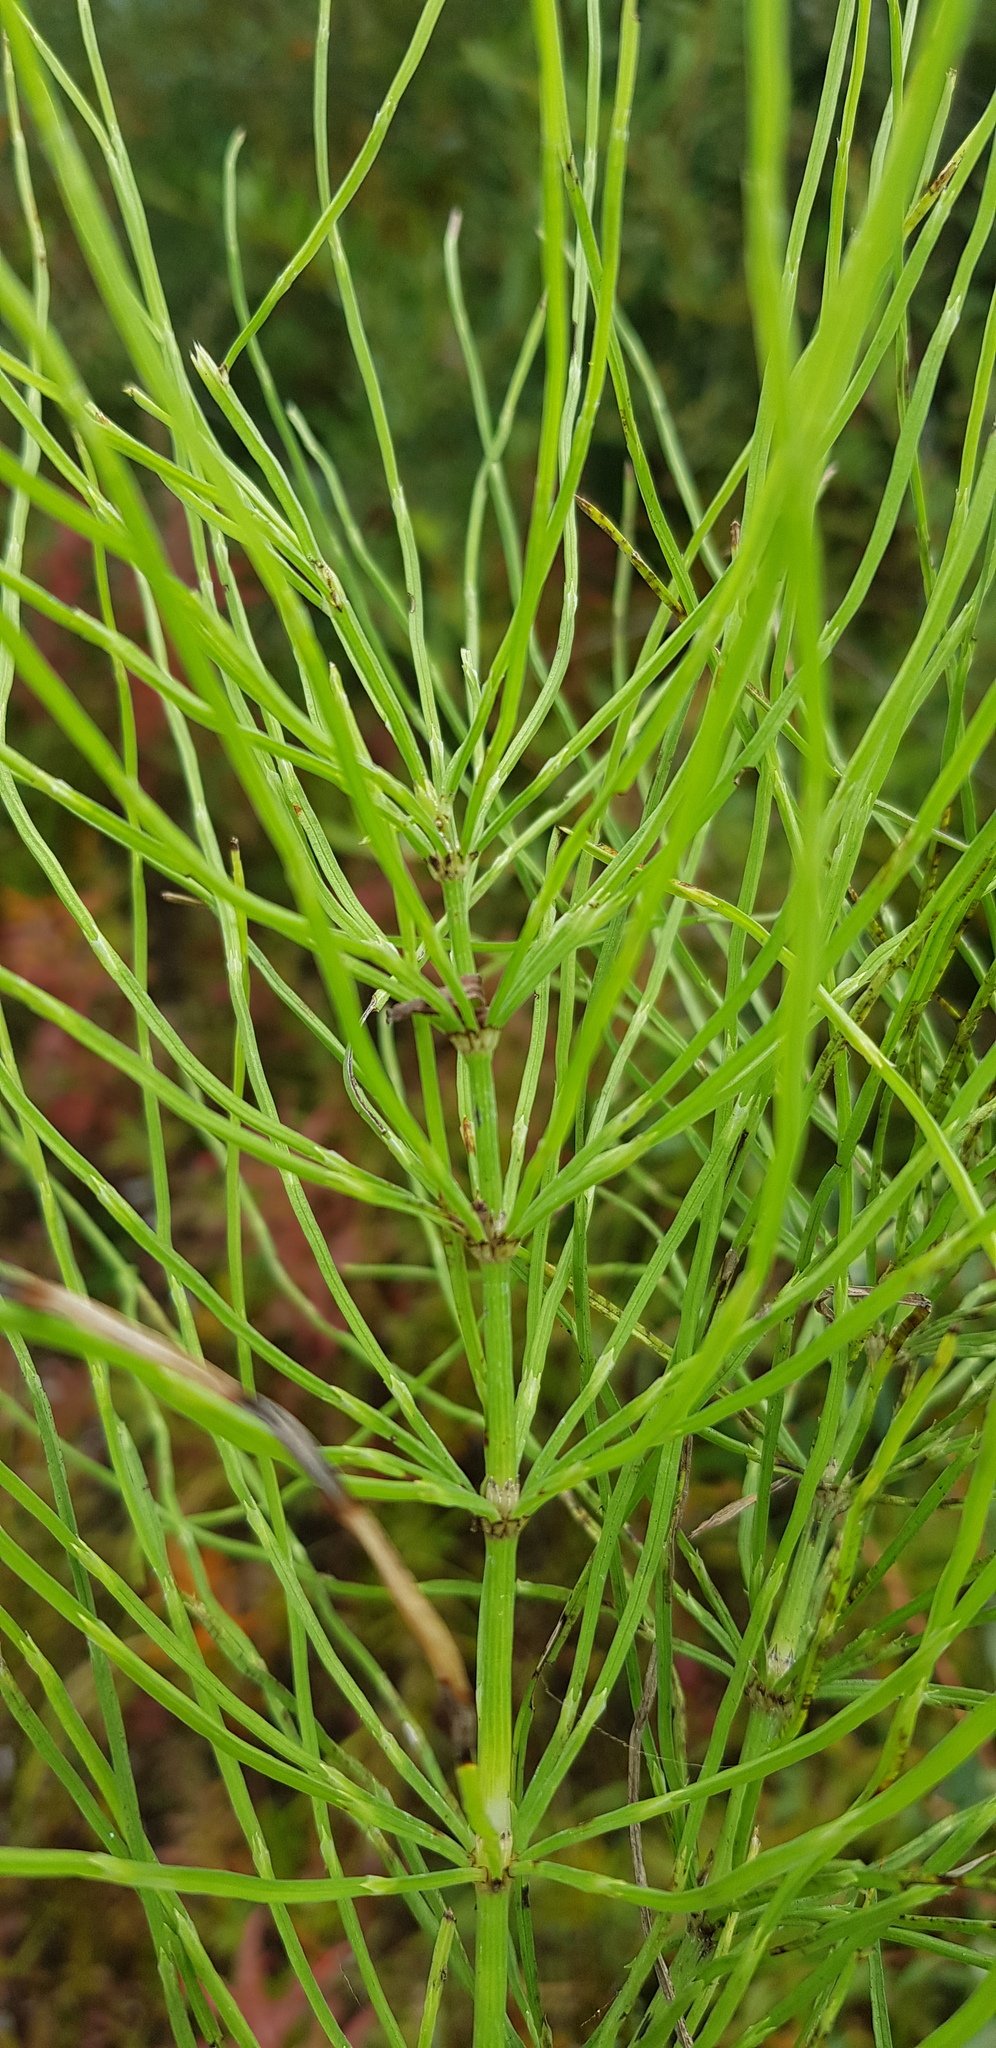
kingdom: Plantae
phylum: Tracheophyta
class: Polypodiopsida
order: Equisetales
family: Equisetaceae
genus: Equisetum
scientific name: Equisetum arvense
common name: Field horsetail
